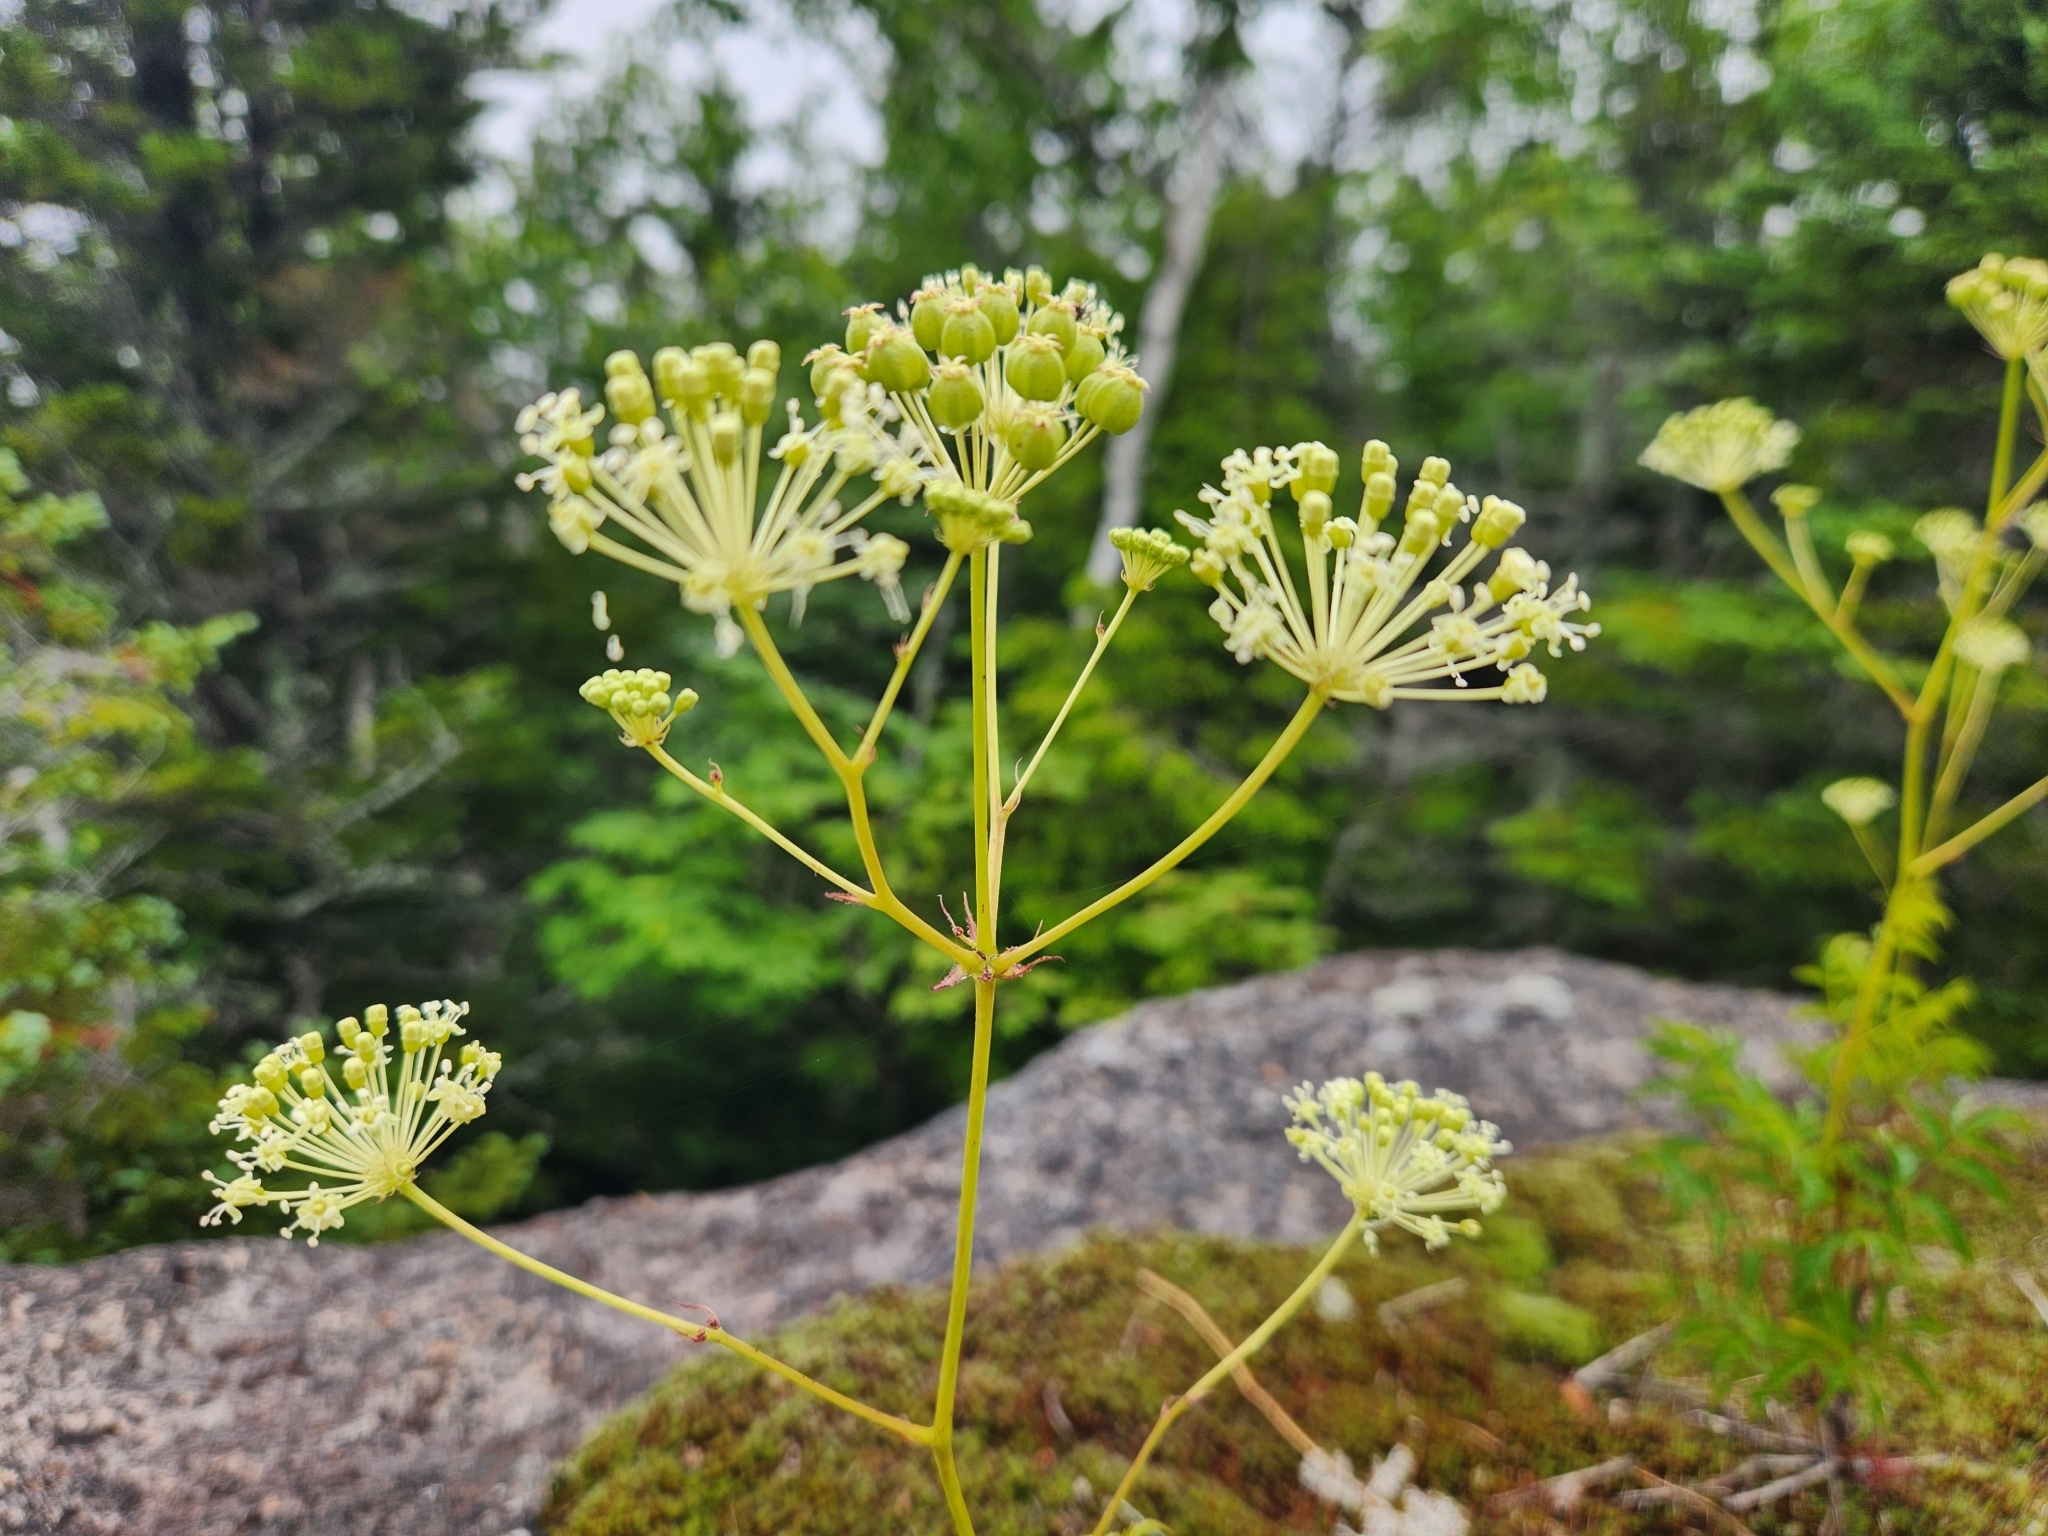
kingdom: Plantae
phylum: Tracheophyta
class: Magnoliopsida
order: Apiales
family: Araliaceae
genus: Aralia
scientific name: Aralia hispida
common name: Bristly sarsaparilla
